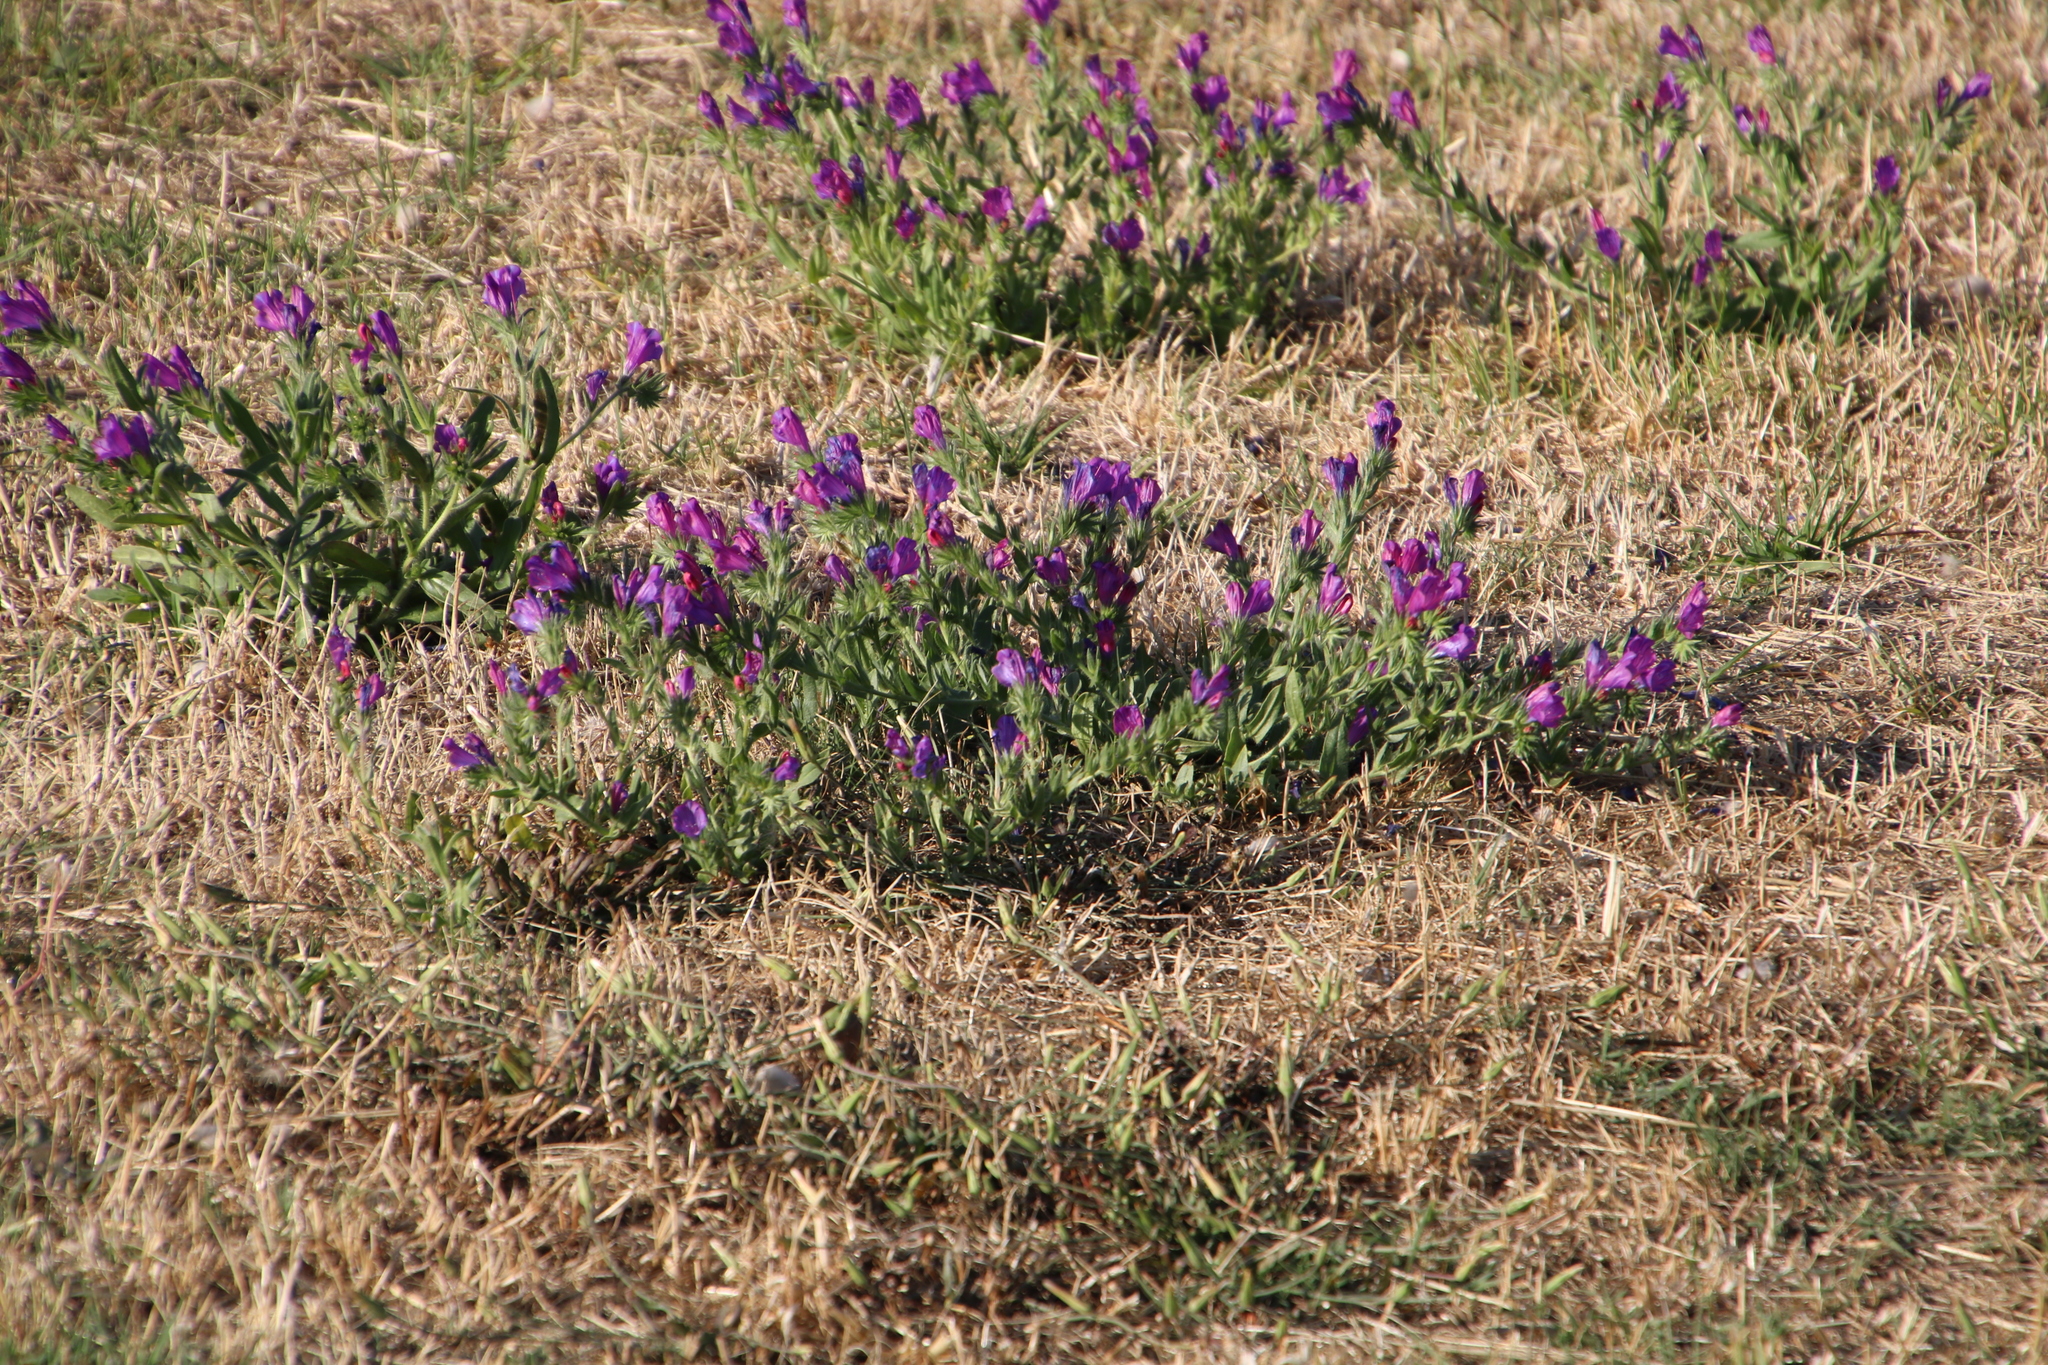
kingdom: Plantae
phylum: Tracheophyta
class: Magnoliopsida
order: Boraginales
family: Boraginaceae
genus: Echium
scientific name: Echium plantagineum
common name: Purple viper's-bugloss
